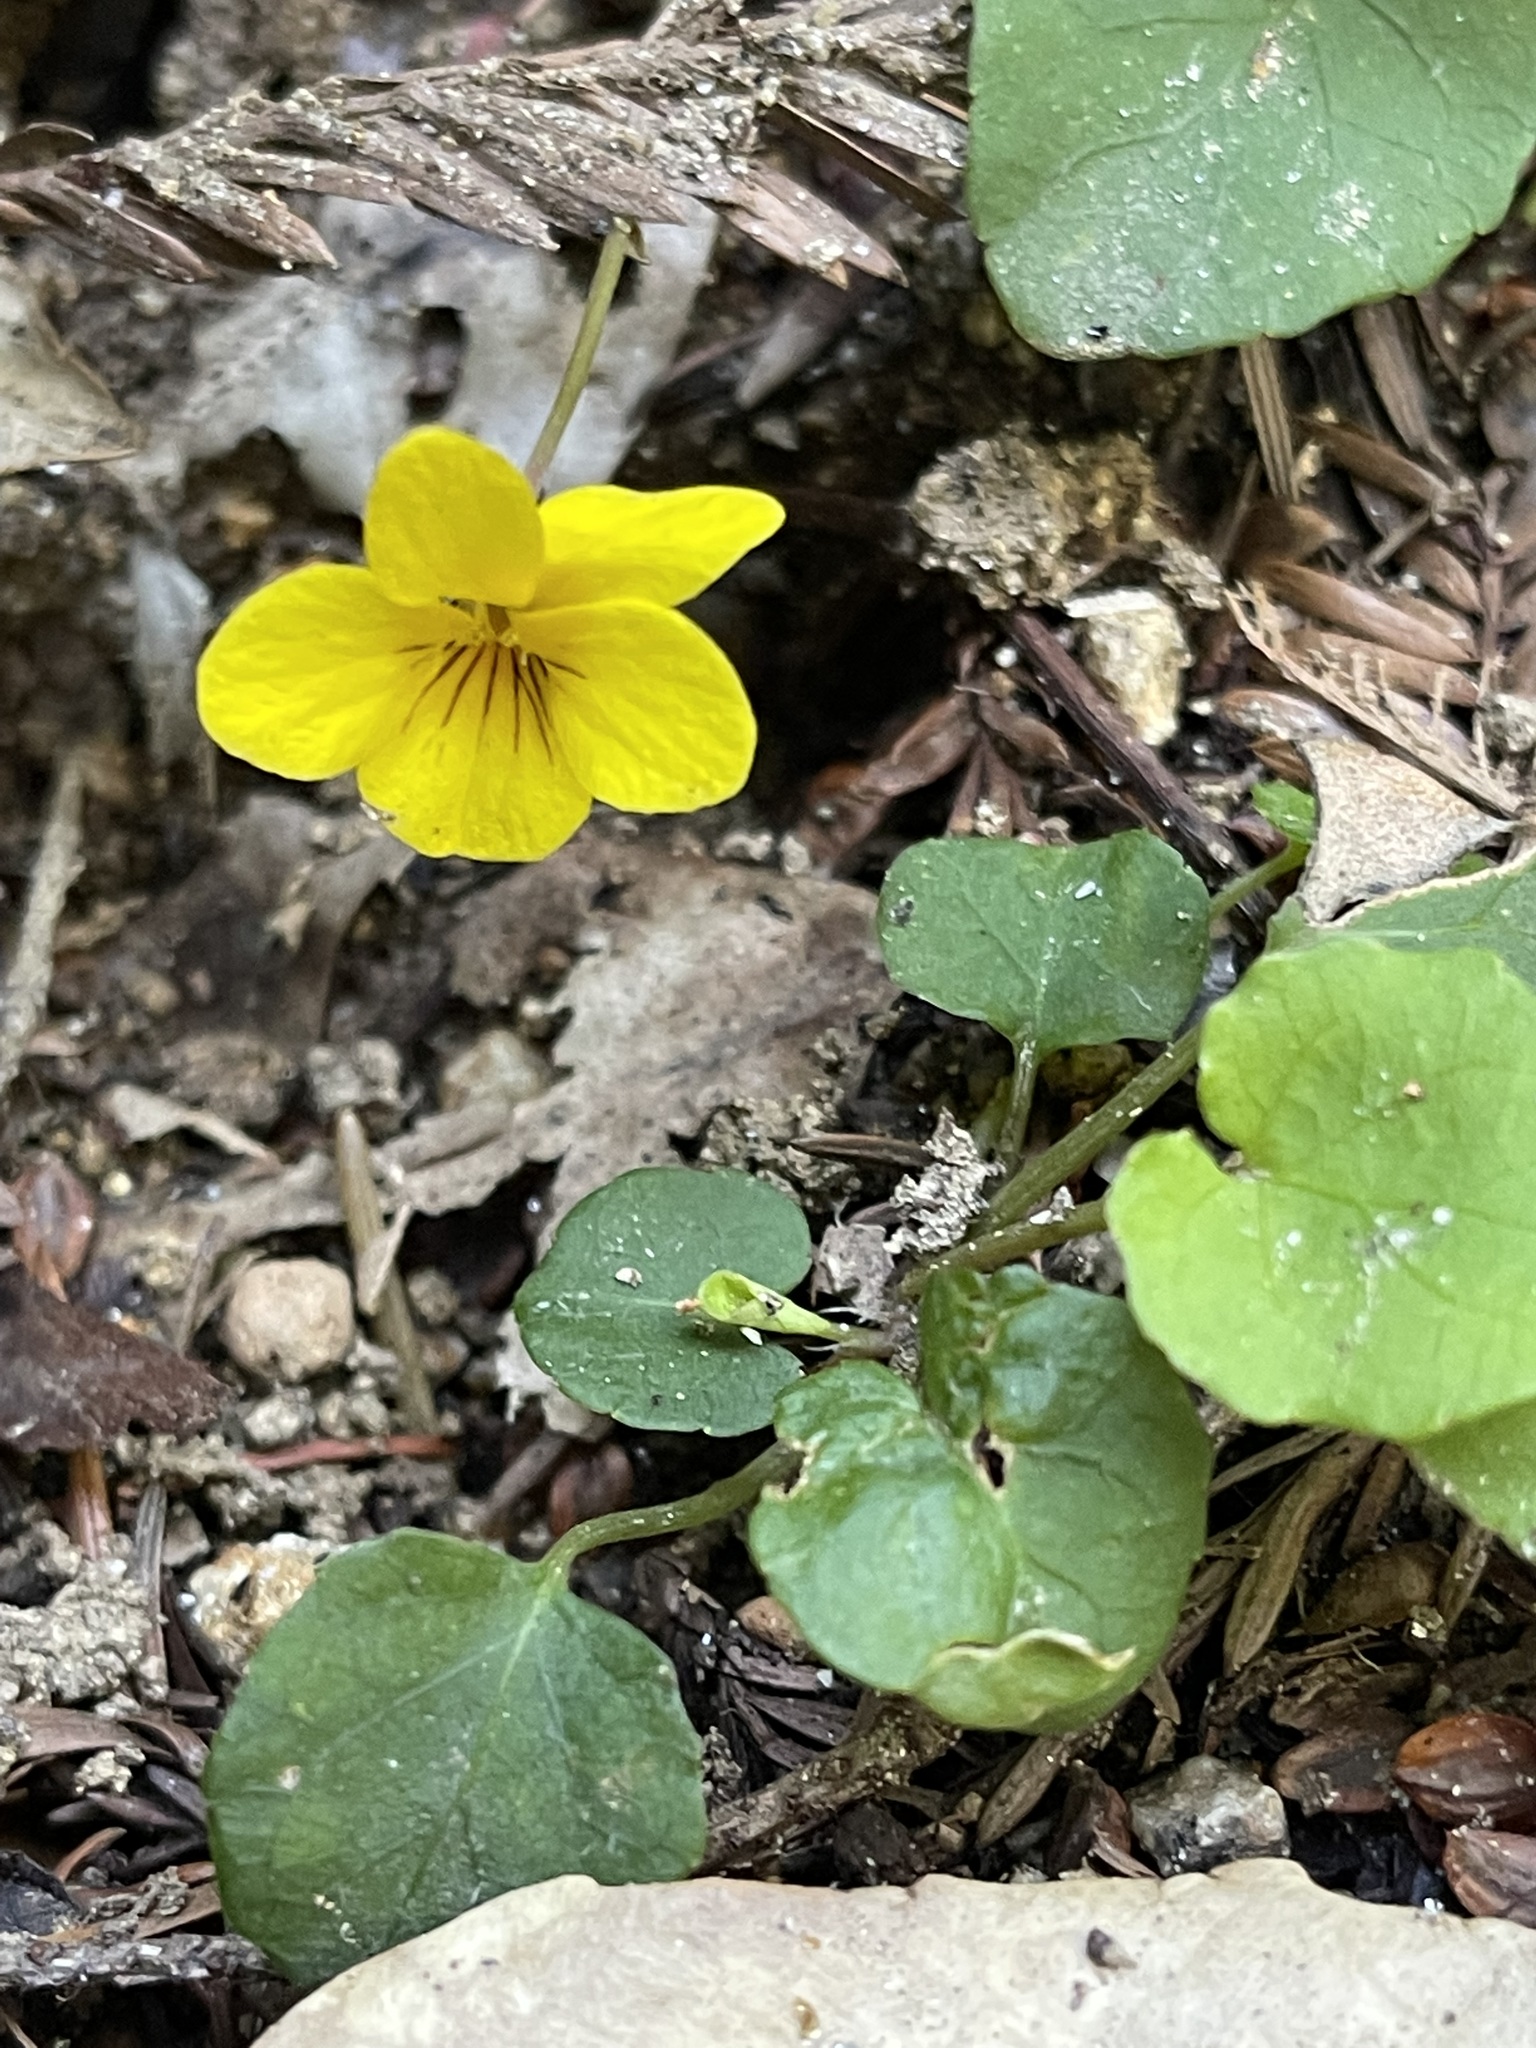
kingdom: Plantae
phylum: Tracheophyta
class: Magnoliopsida
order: Malpighiales
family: Violaceae
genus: Viola
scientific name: Viola sempervirens
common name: Evergreen violet
